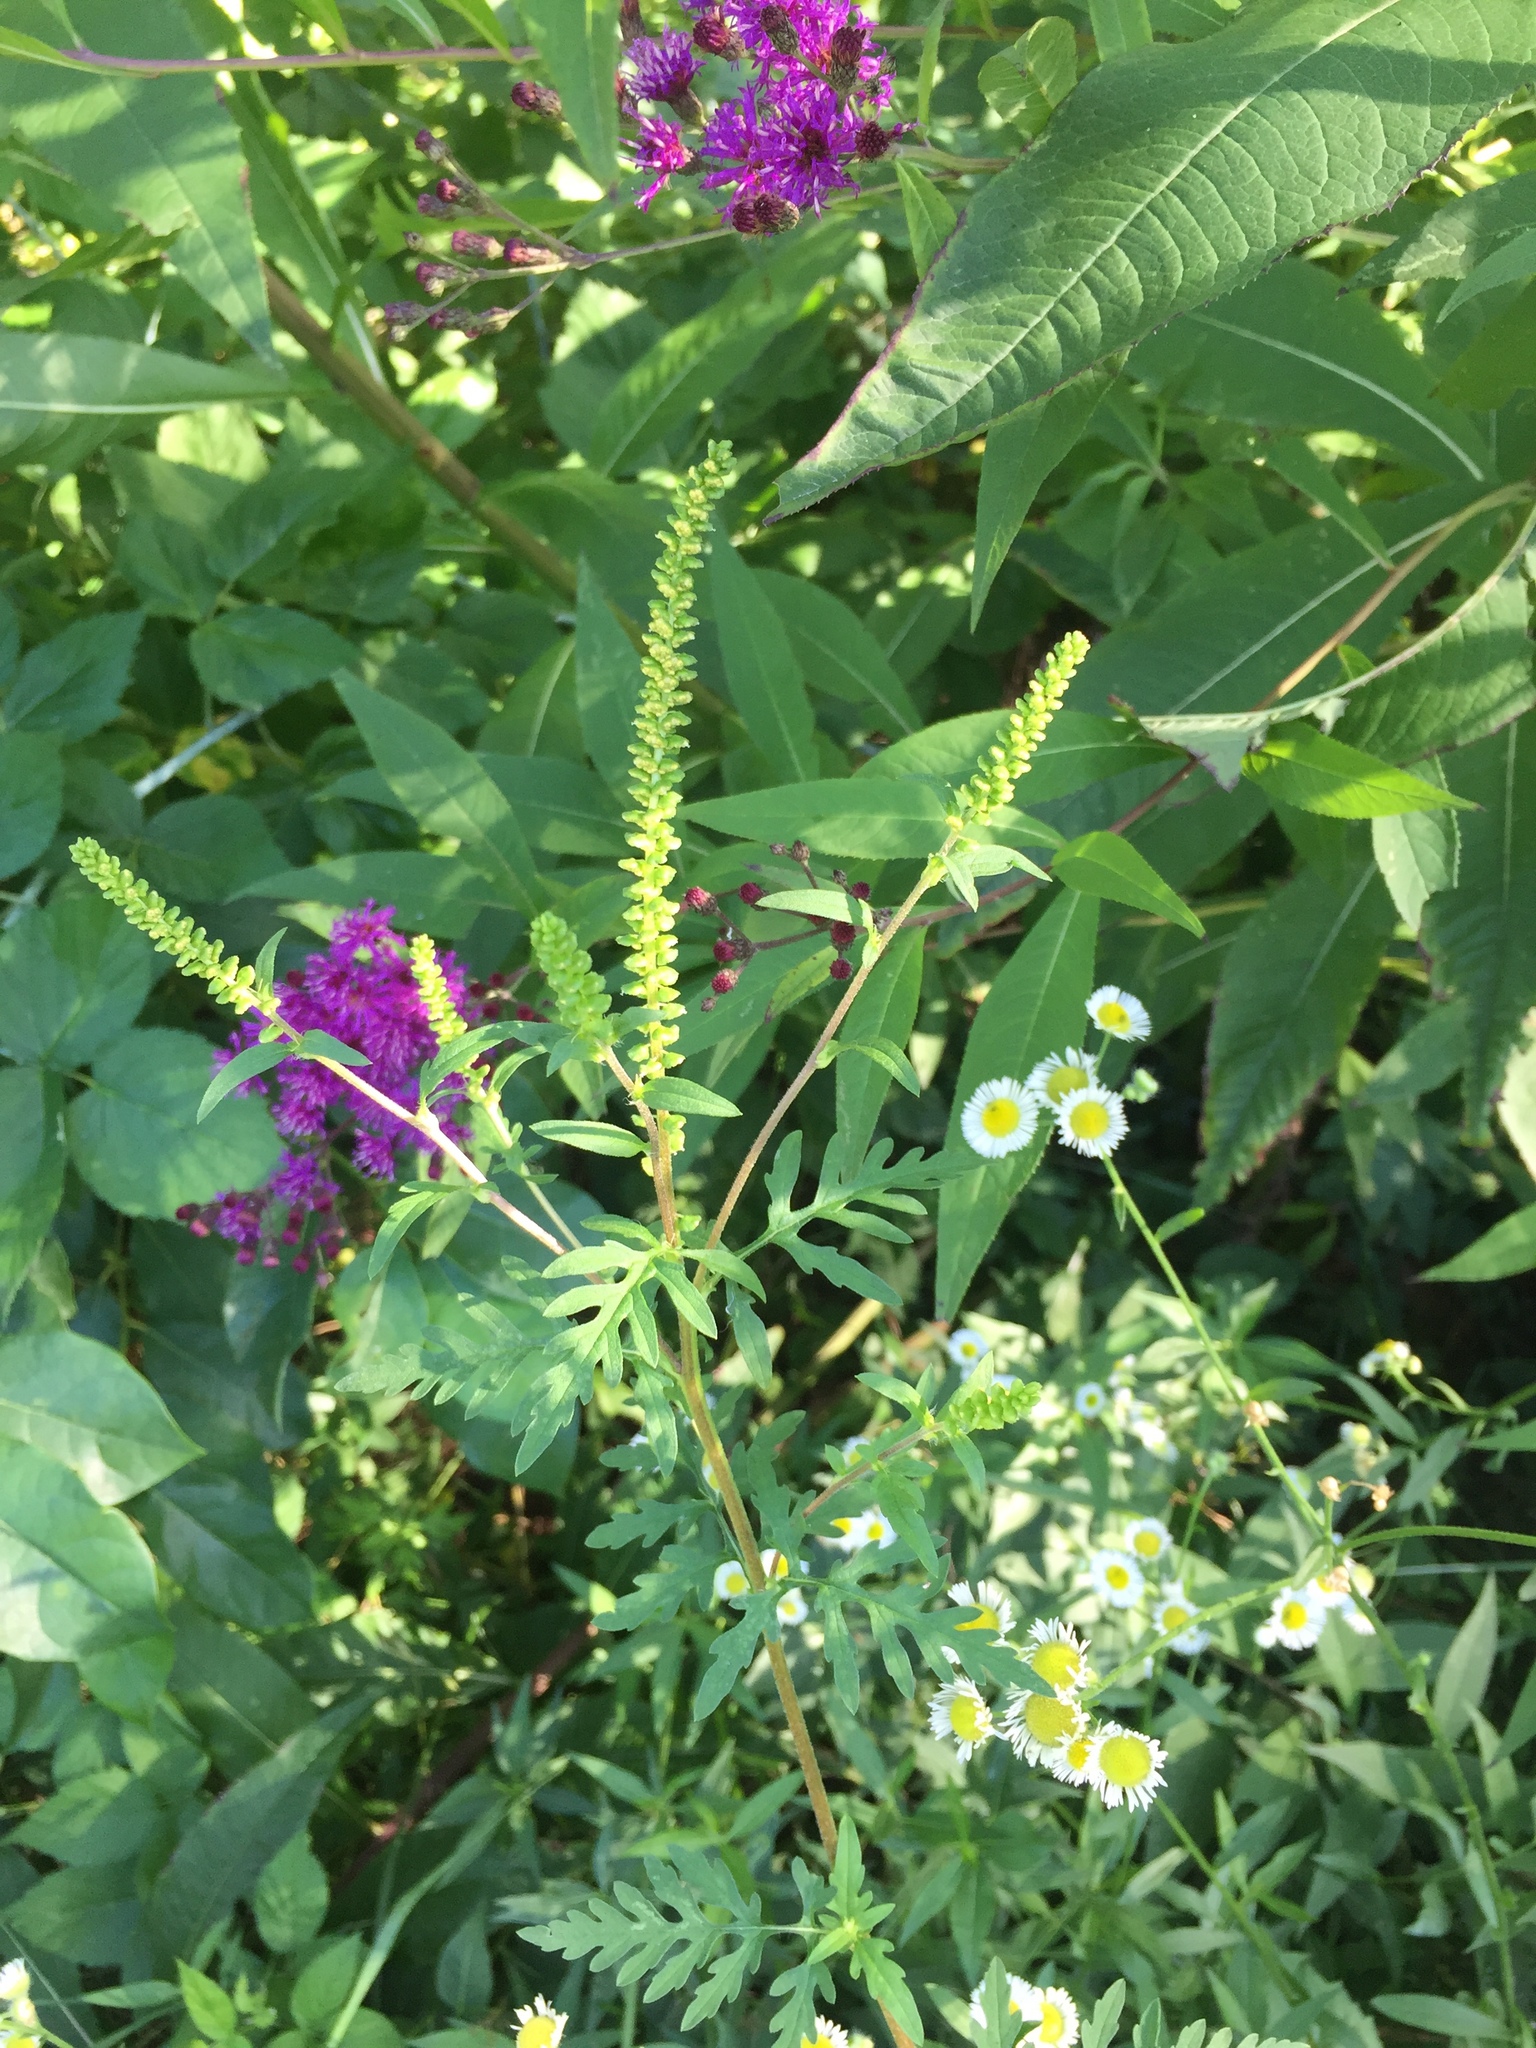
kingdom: Plantae
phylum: Tracheophyta
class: Magnoliopsida
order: Asterales
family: Asteraceae
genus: Ambrosia
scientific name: Ambrosia artemisiifolia
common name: Annual ragweed
